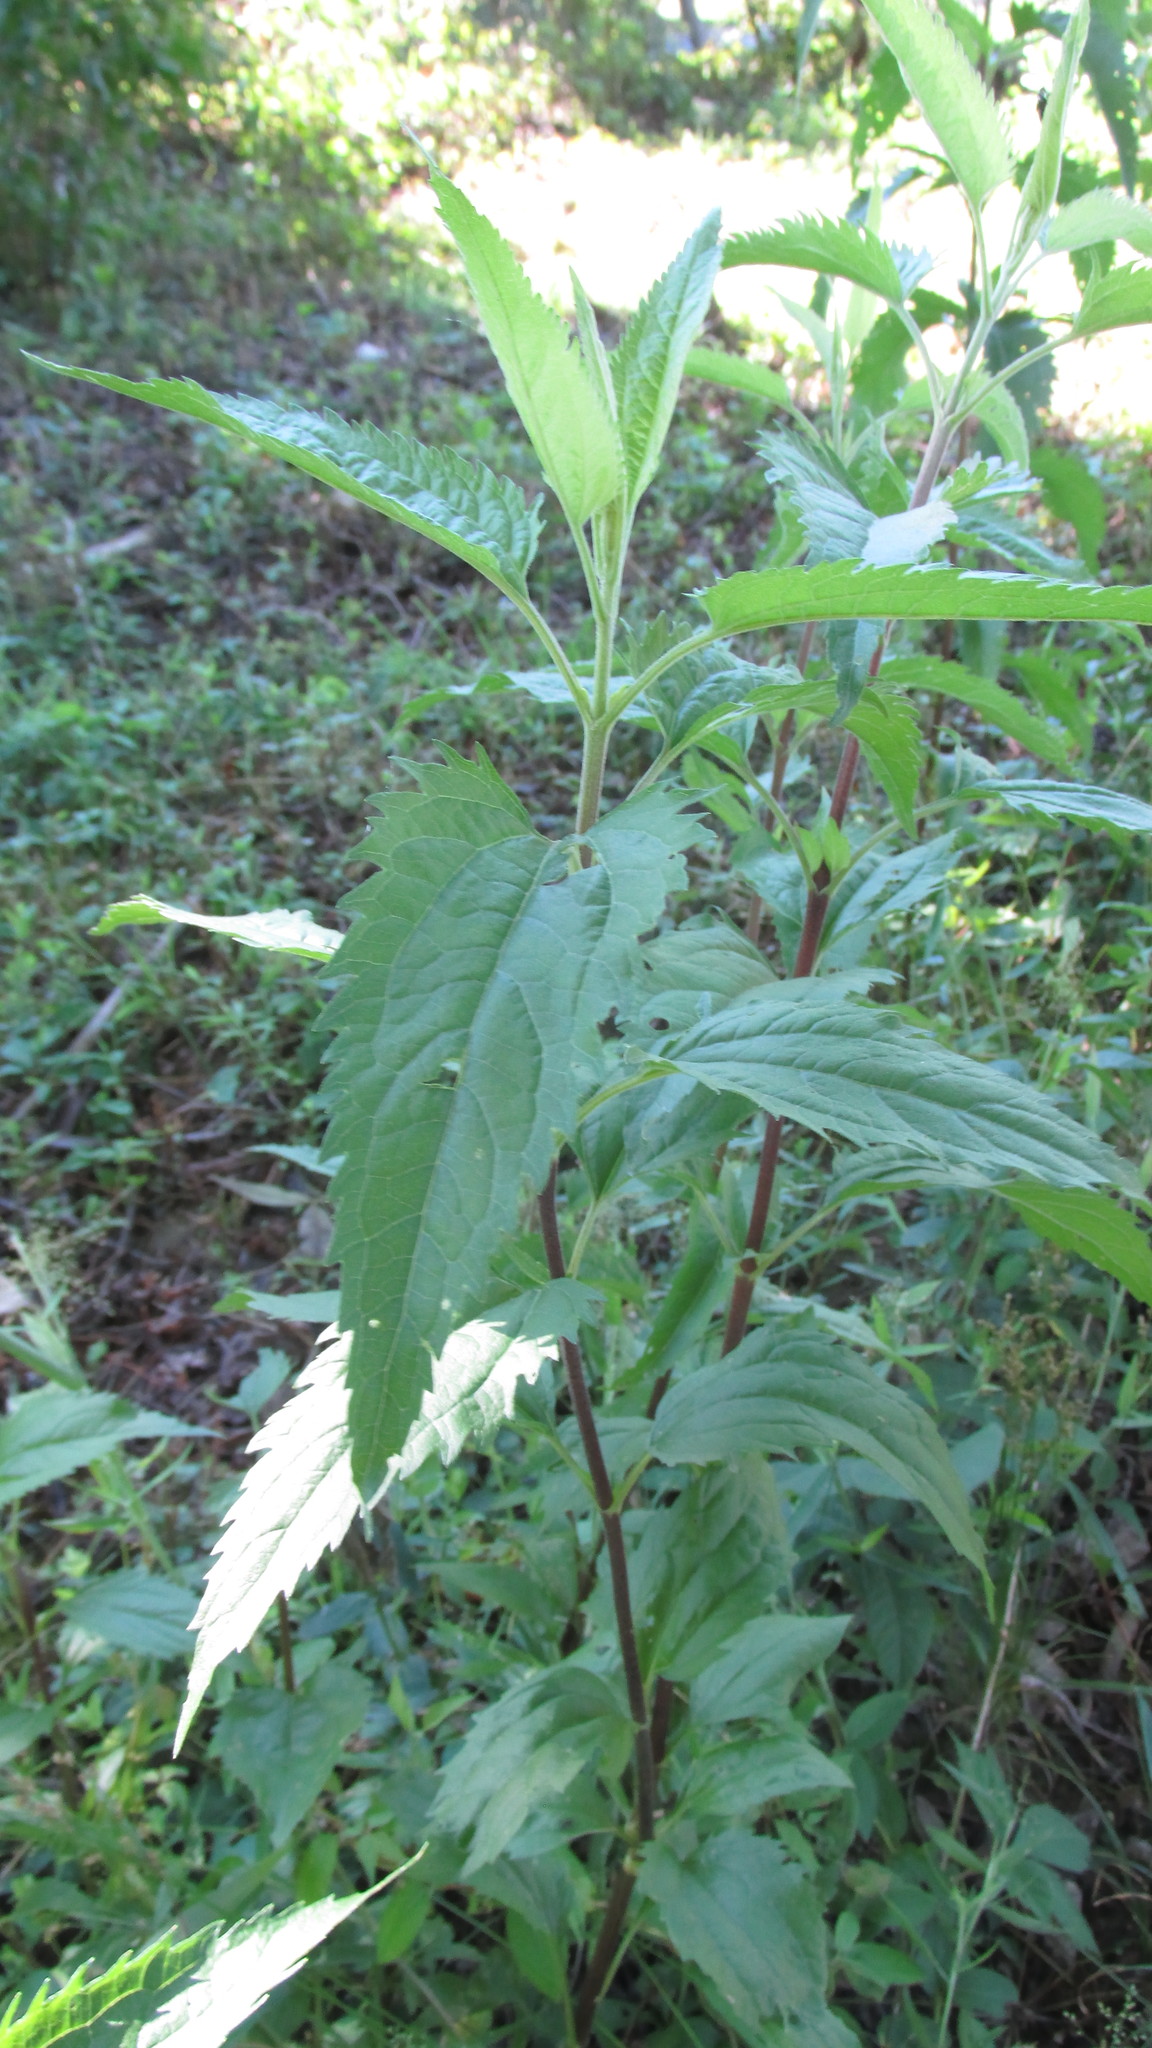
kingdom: Plantae
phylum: Tracheophyta
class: Magnoliopsida
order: Asterales
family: Asteraceae
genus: Eupatorium
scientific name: Eupatorium serotinum
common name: Late boneset
